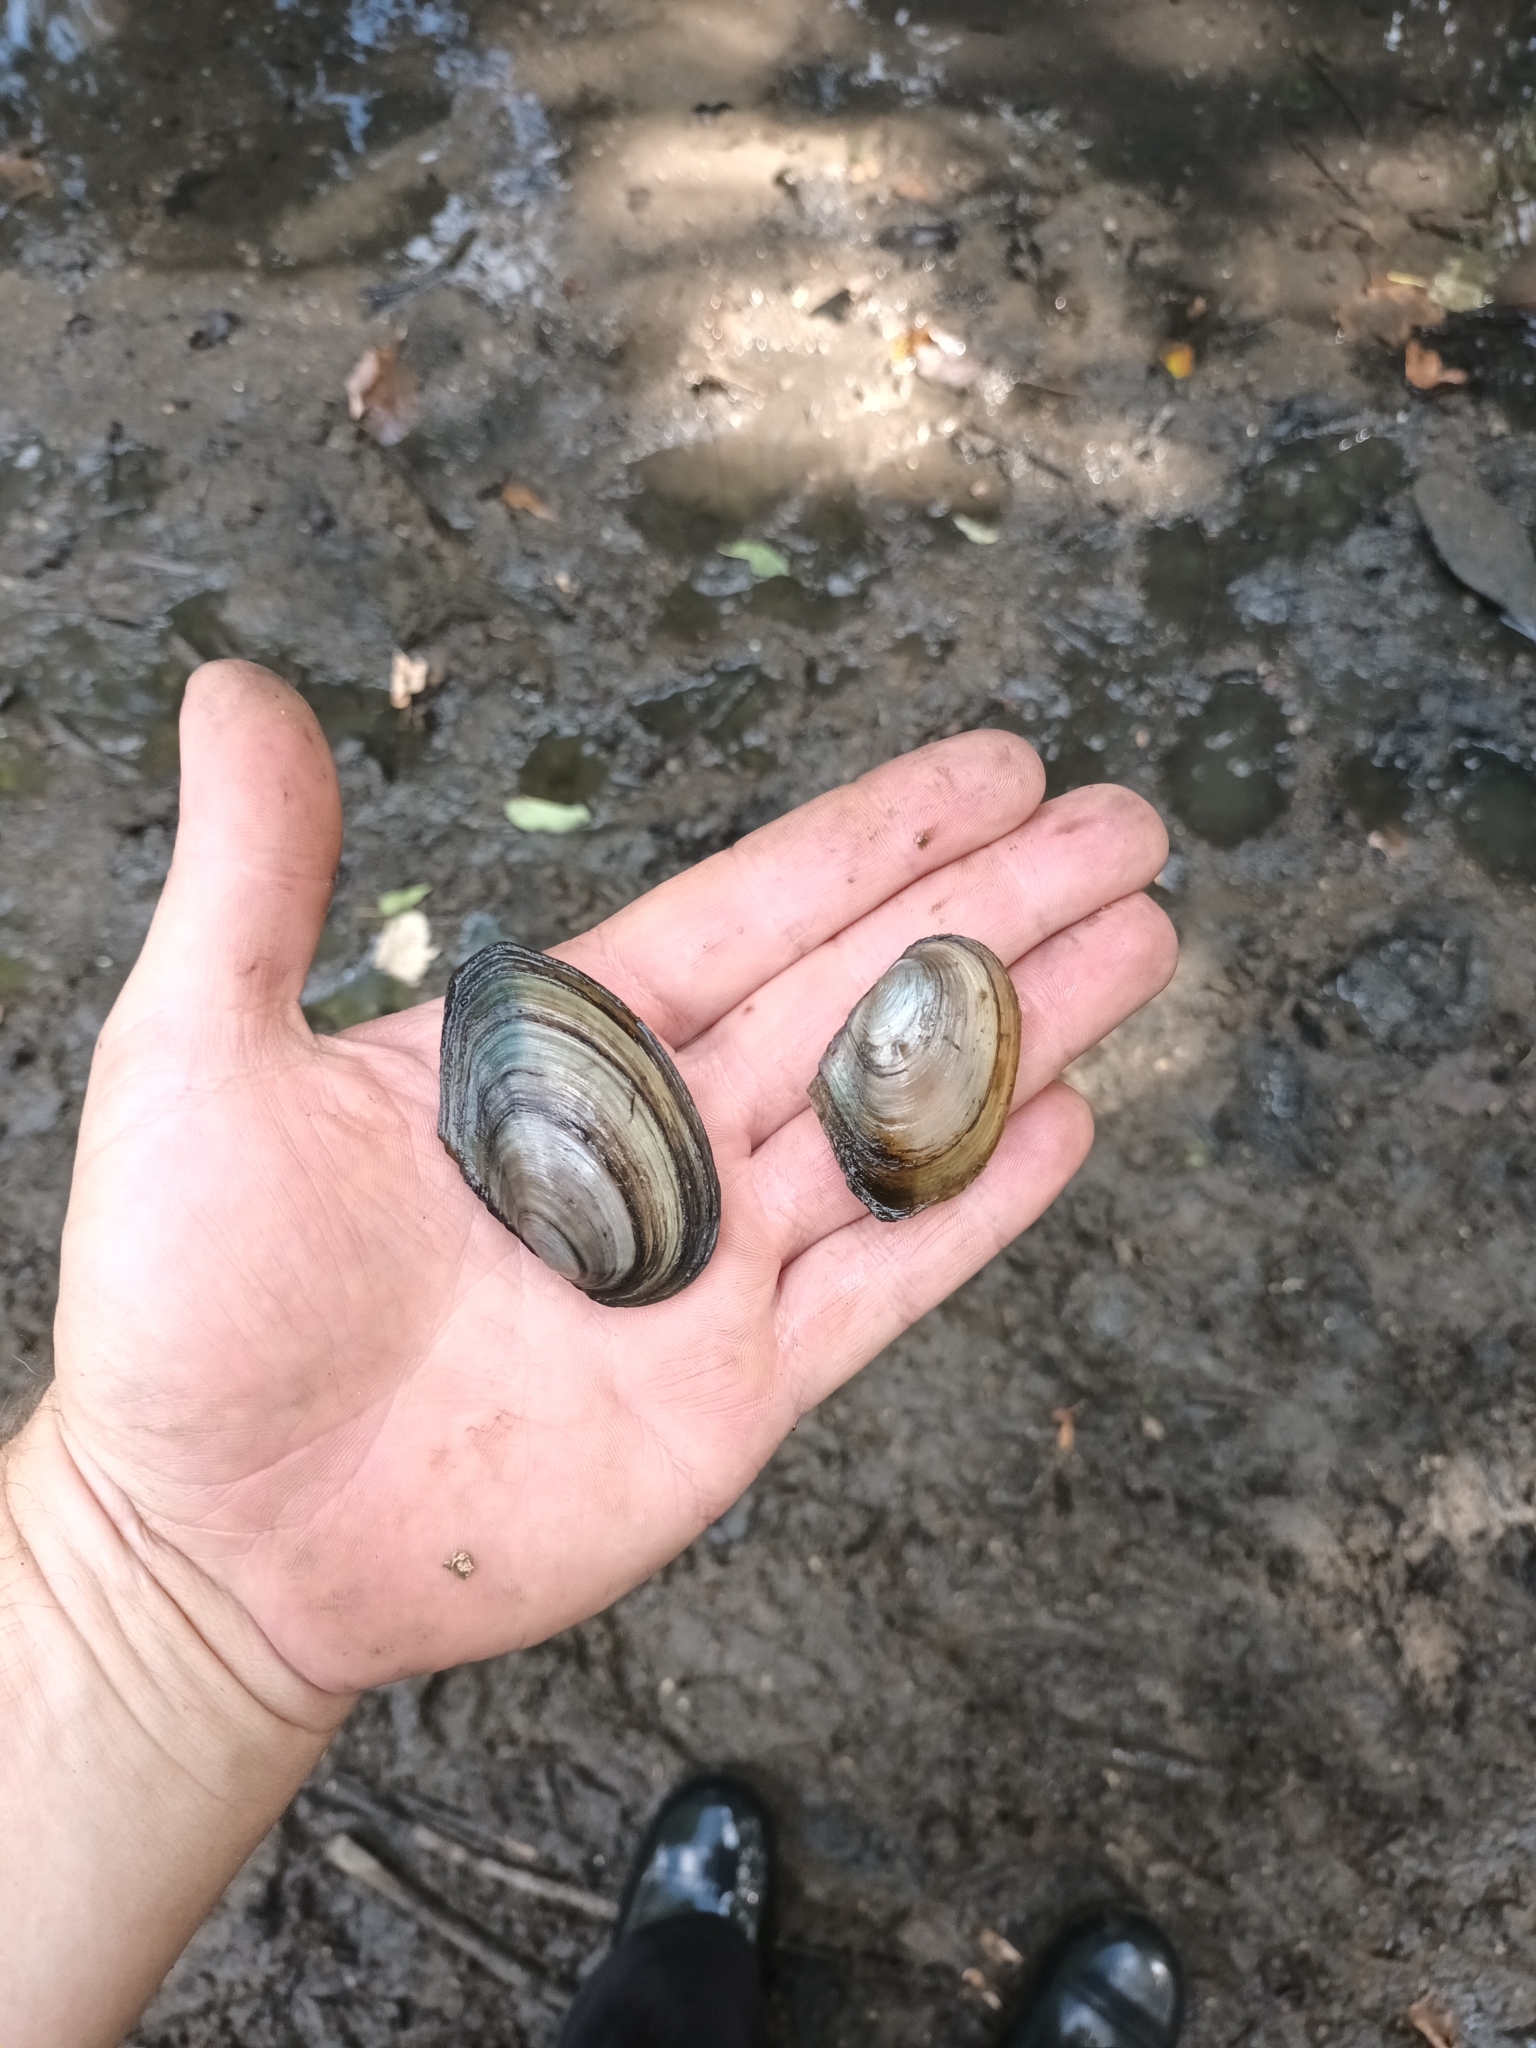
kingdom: Animalia
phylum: Mollusca
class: Bivalvia
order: Unionida
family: Unionidae
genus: Anodonta
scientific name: Anodonta anatina
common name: Duck mussel
